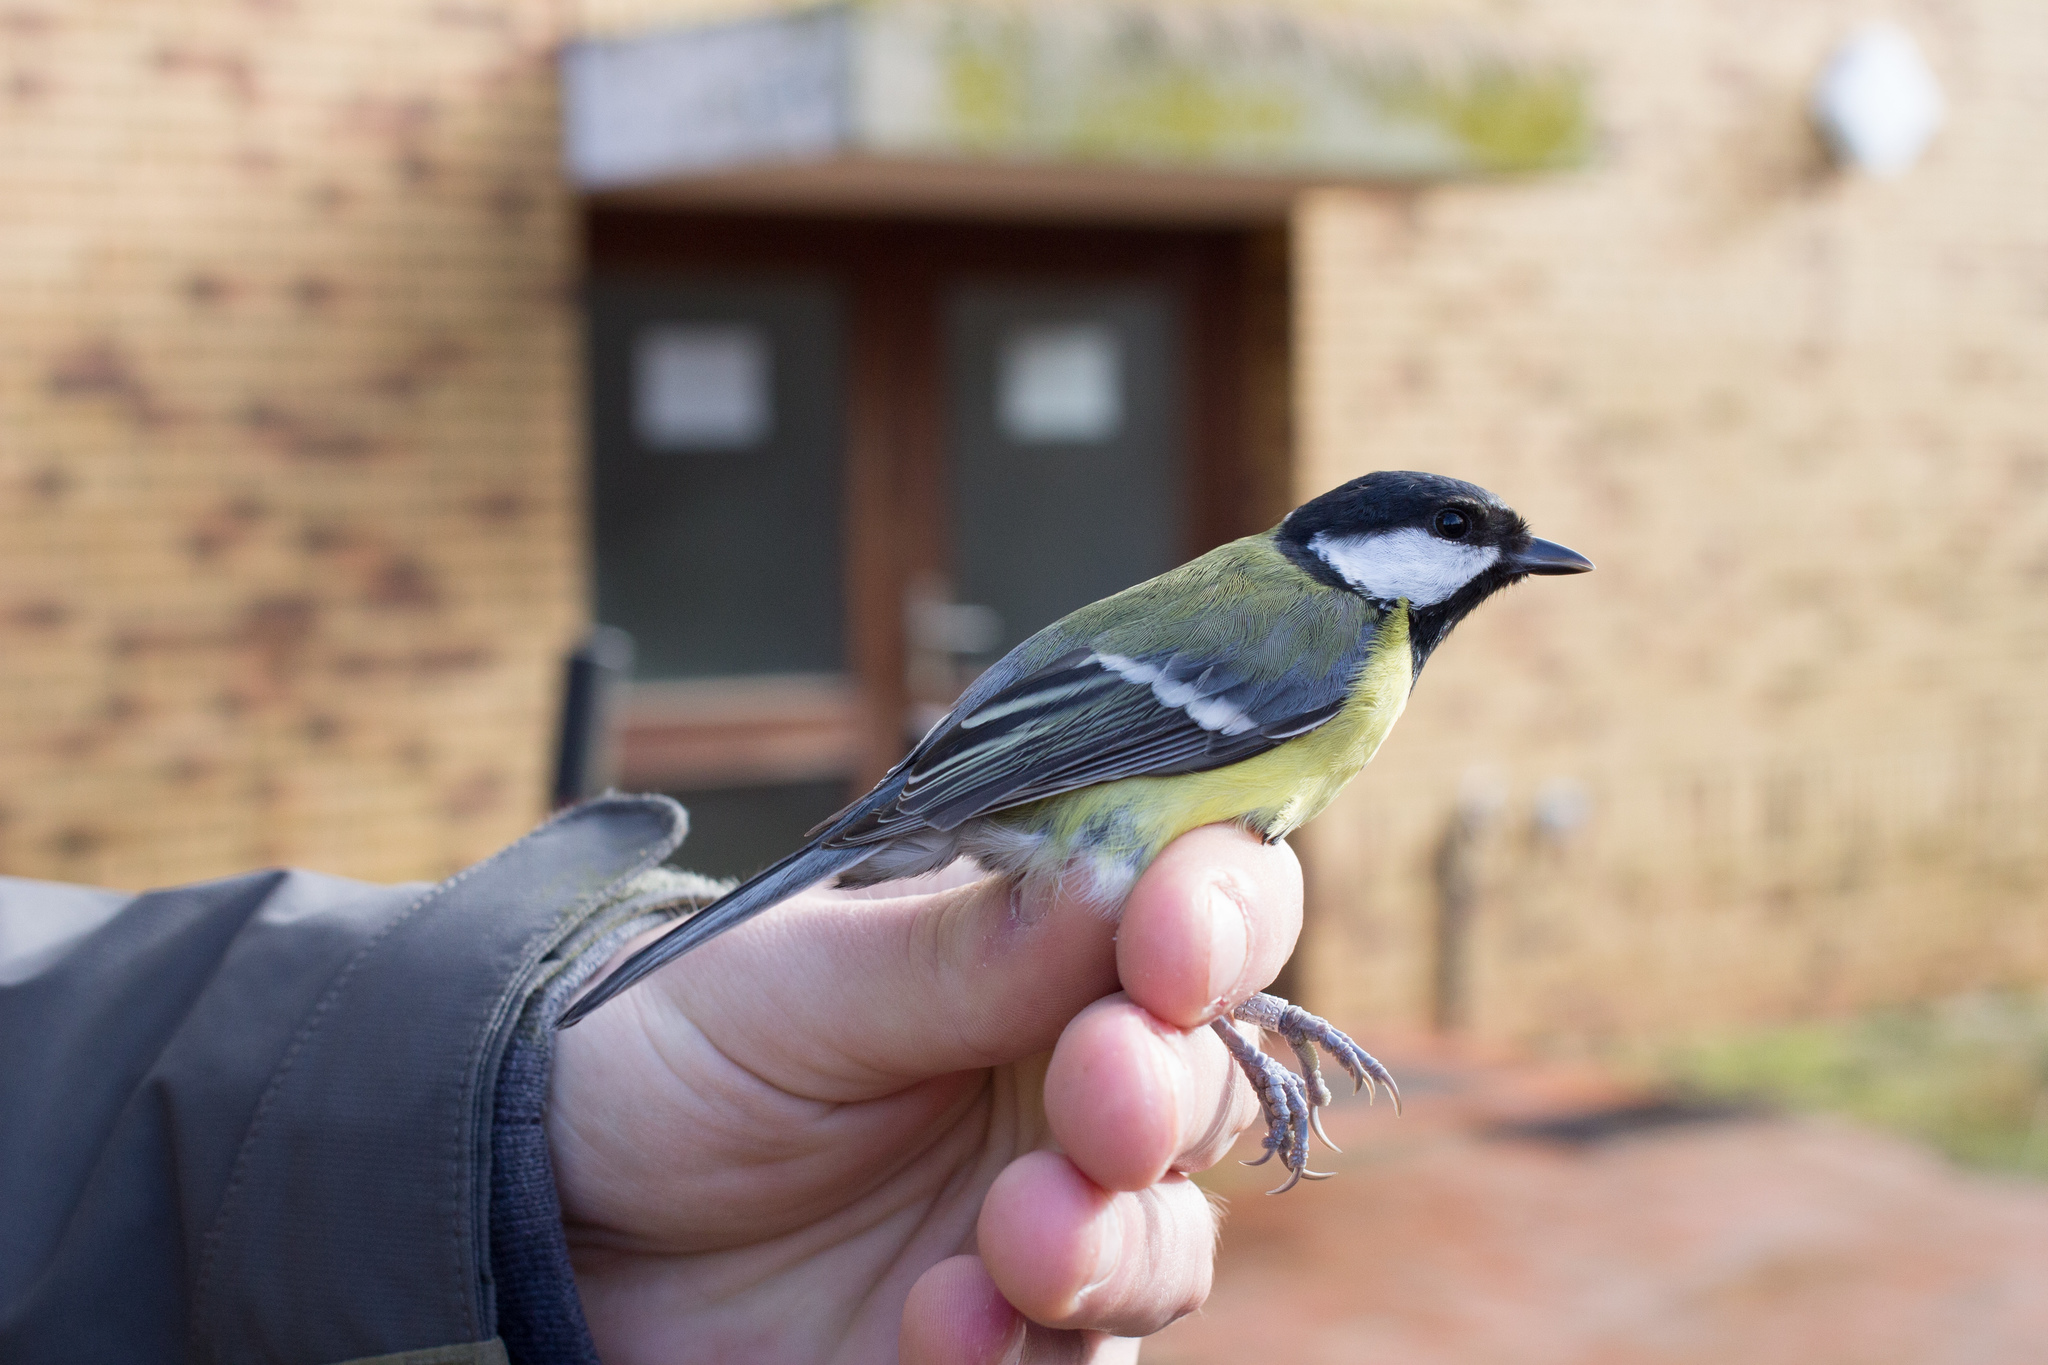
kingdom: Animalia
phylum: Chordata
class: Aves
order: Passeriformes
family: Paridae
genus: Parus
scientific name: Parus major
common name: Great tit
